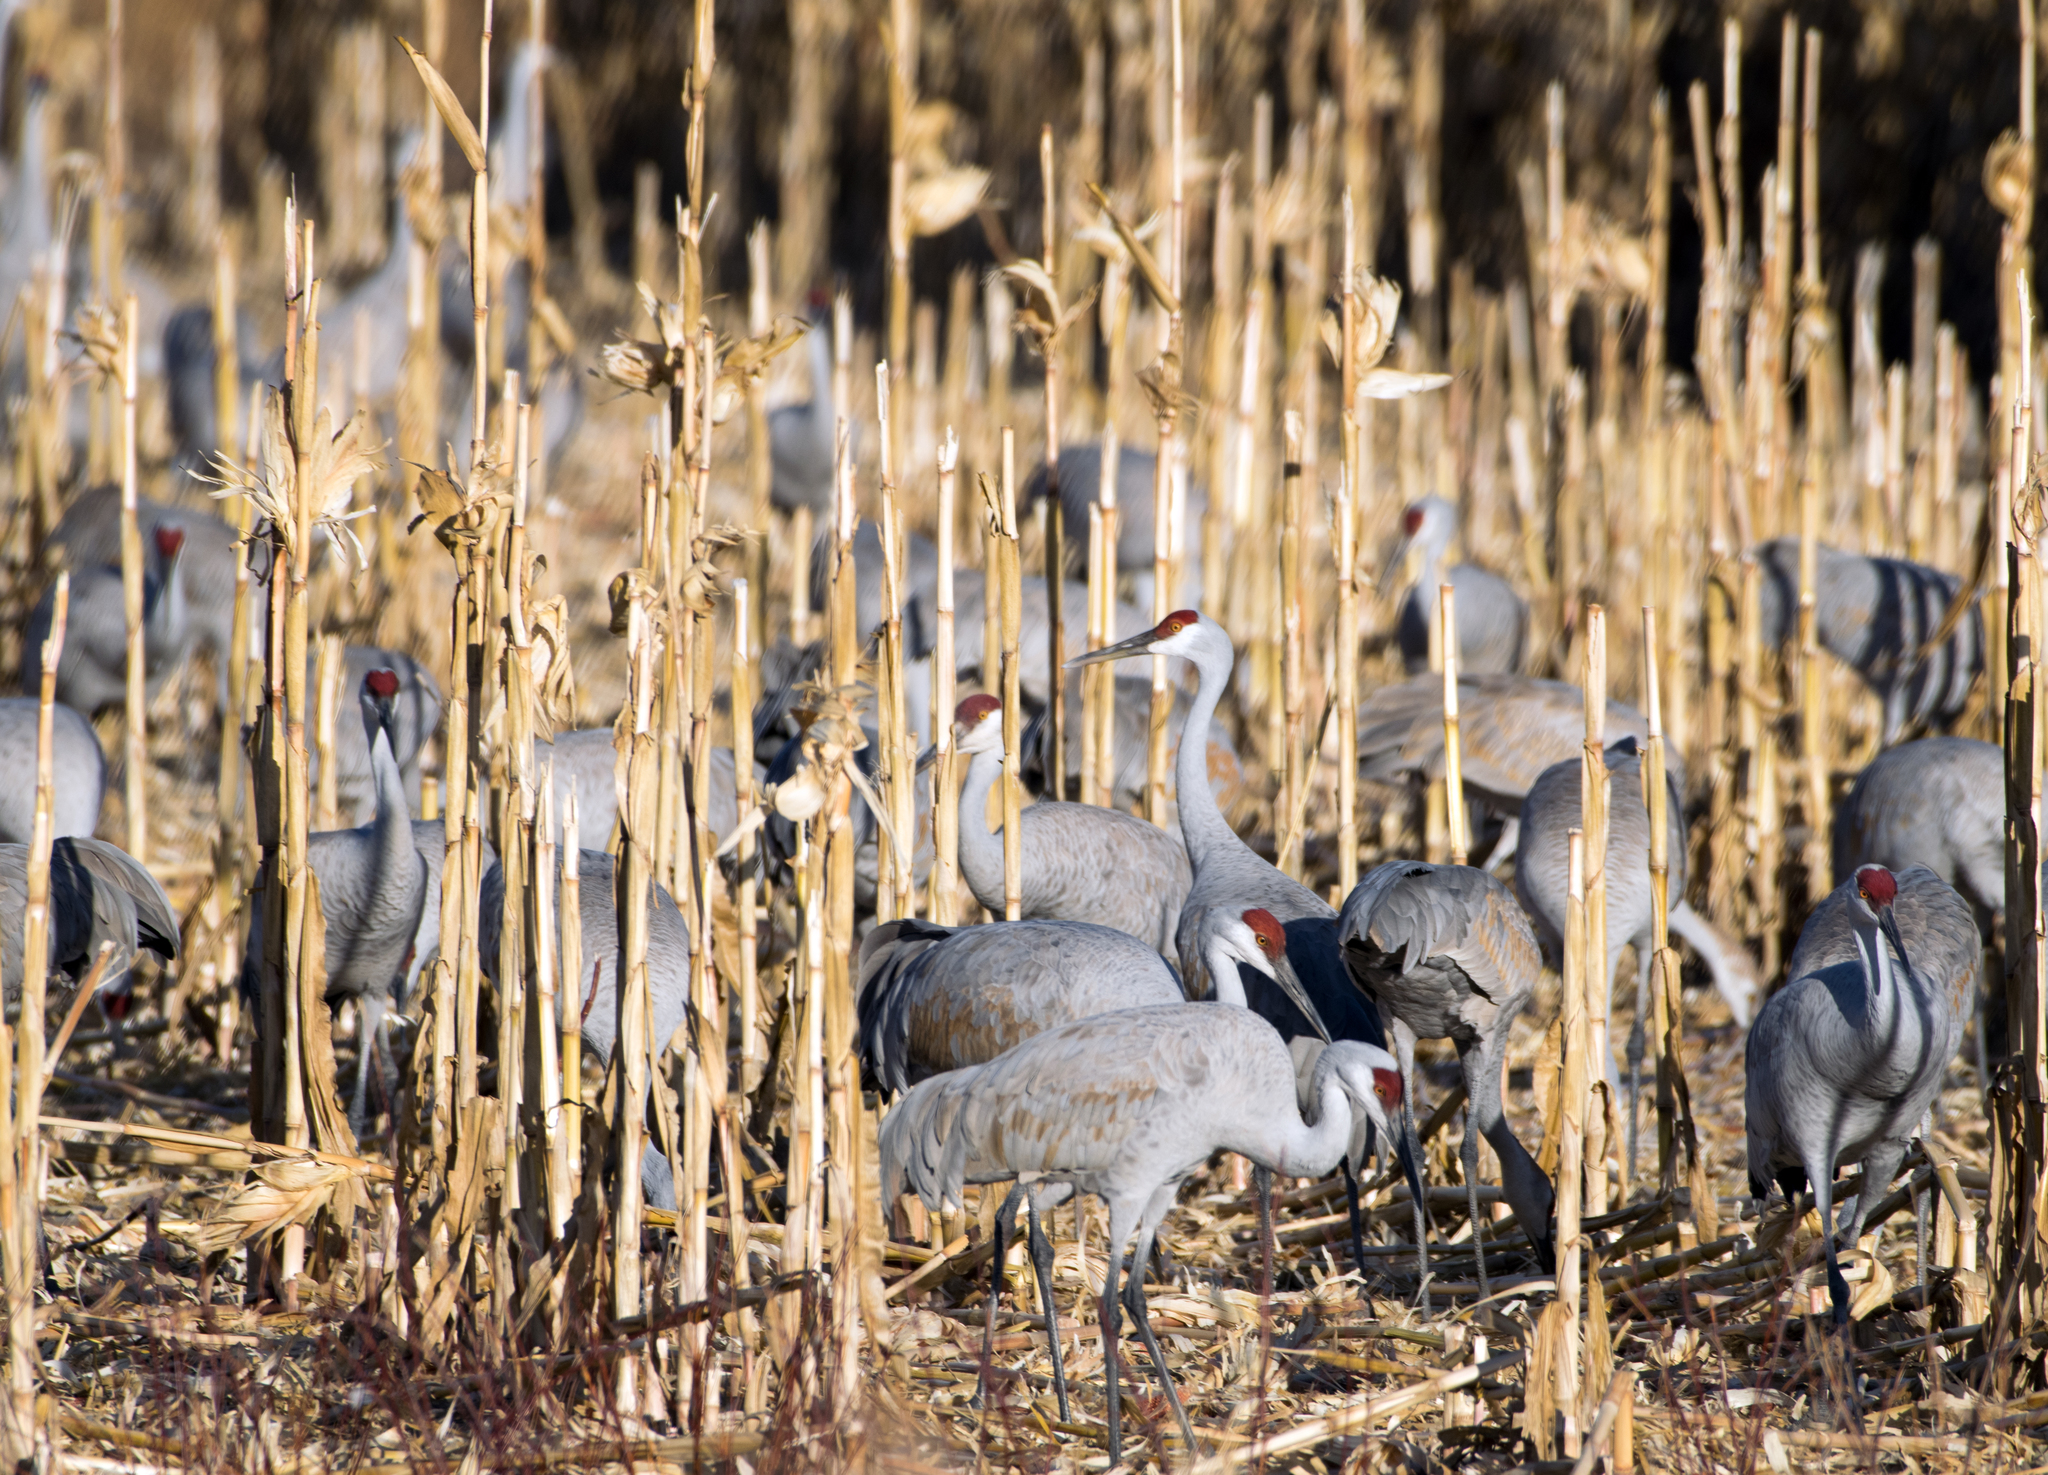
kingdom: Animalia
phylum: Chordata
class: Aves
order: Gruiformes
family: Gruidae
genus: Grus
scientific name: Grus canadensis
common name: Sandhill crane
